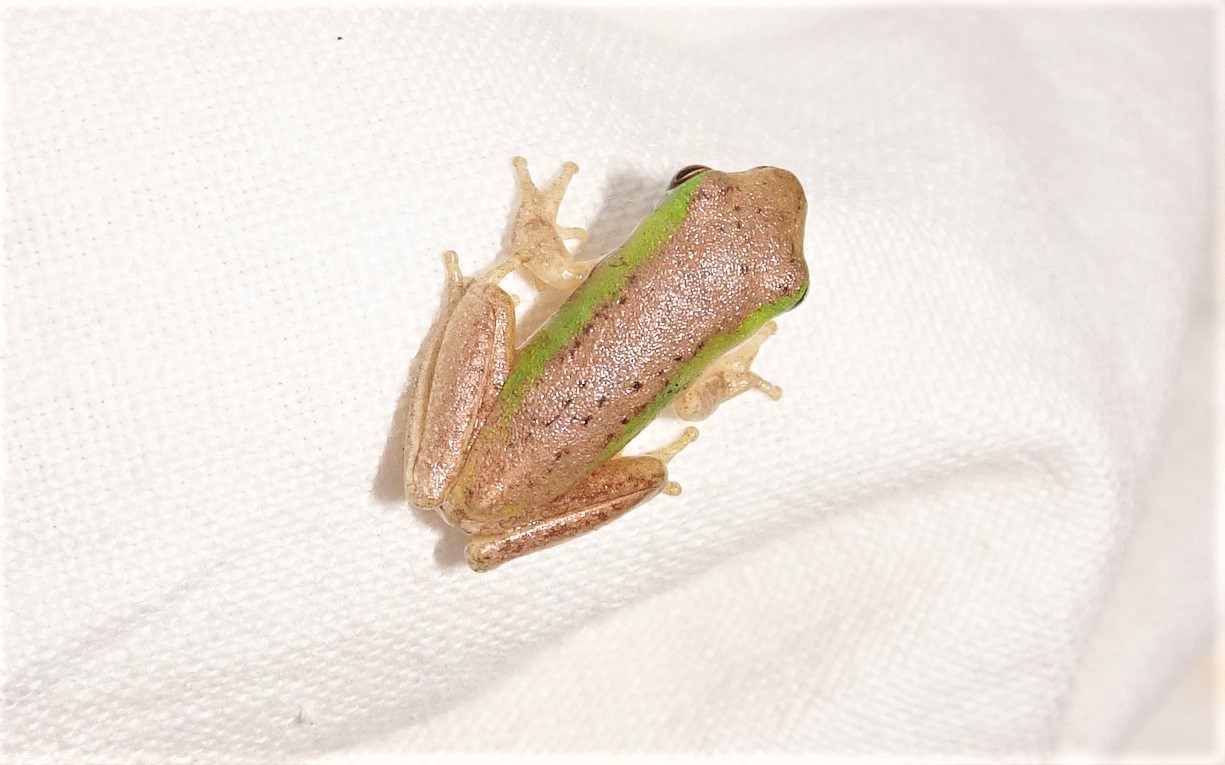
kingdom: Animalia
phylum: Chordata
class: Amphibia
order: Anura
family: Pelodryadidae
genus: Litoria
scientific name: Litoria fallax
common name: Eastern dwarf treefrog
